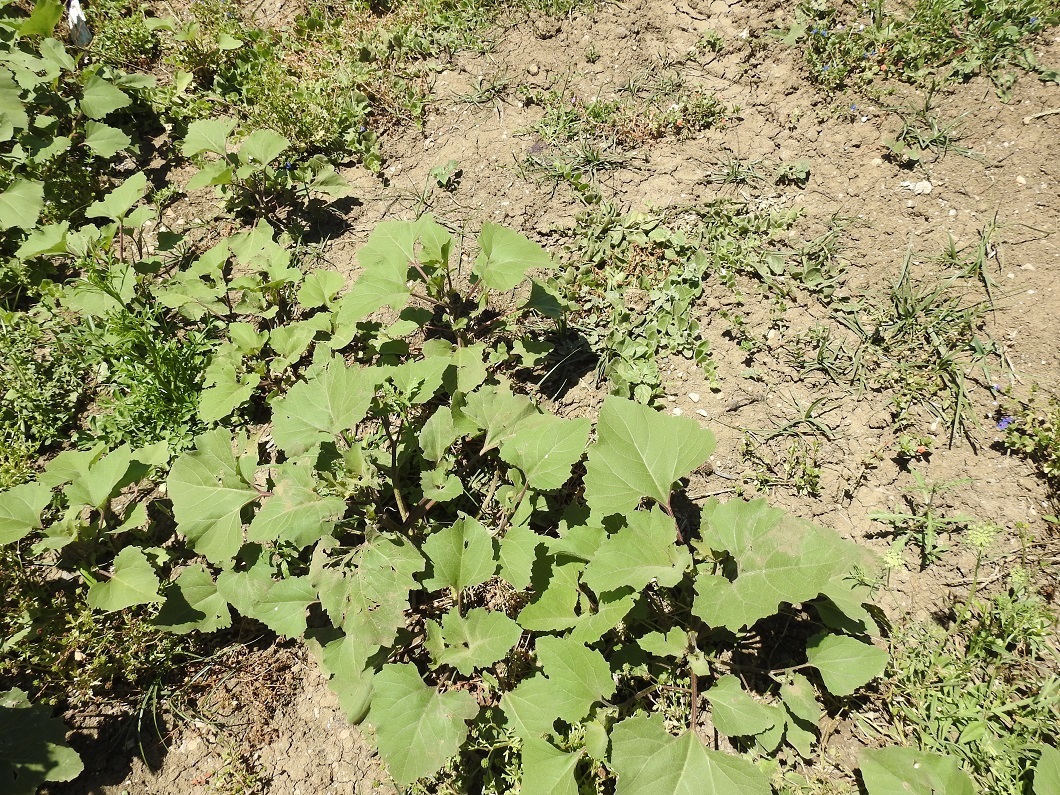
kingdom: Plantae
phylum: Tracheophyta
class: Magnoliopsida
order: Asterales
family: Asteraceae
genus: Xanthium
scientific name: Xanthium strumarium
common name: Rough cocklebur
